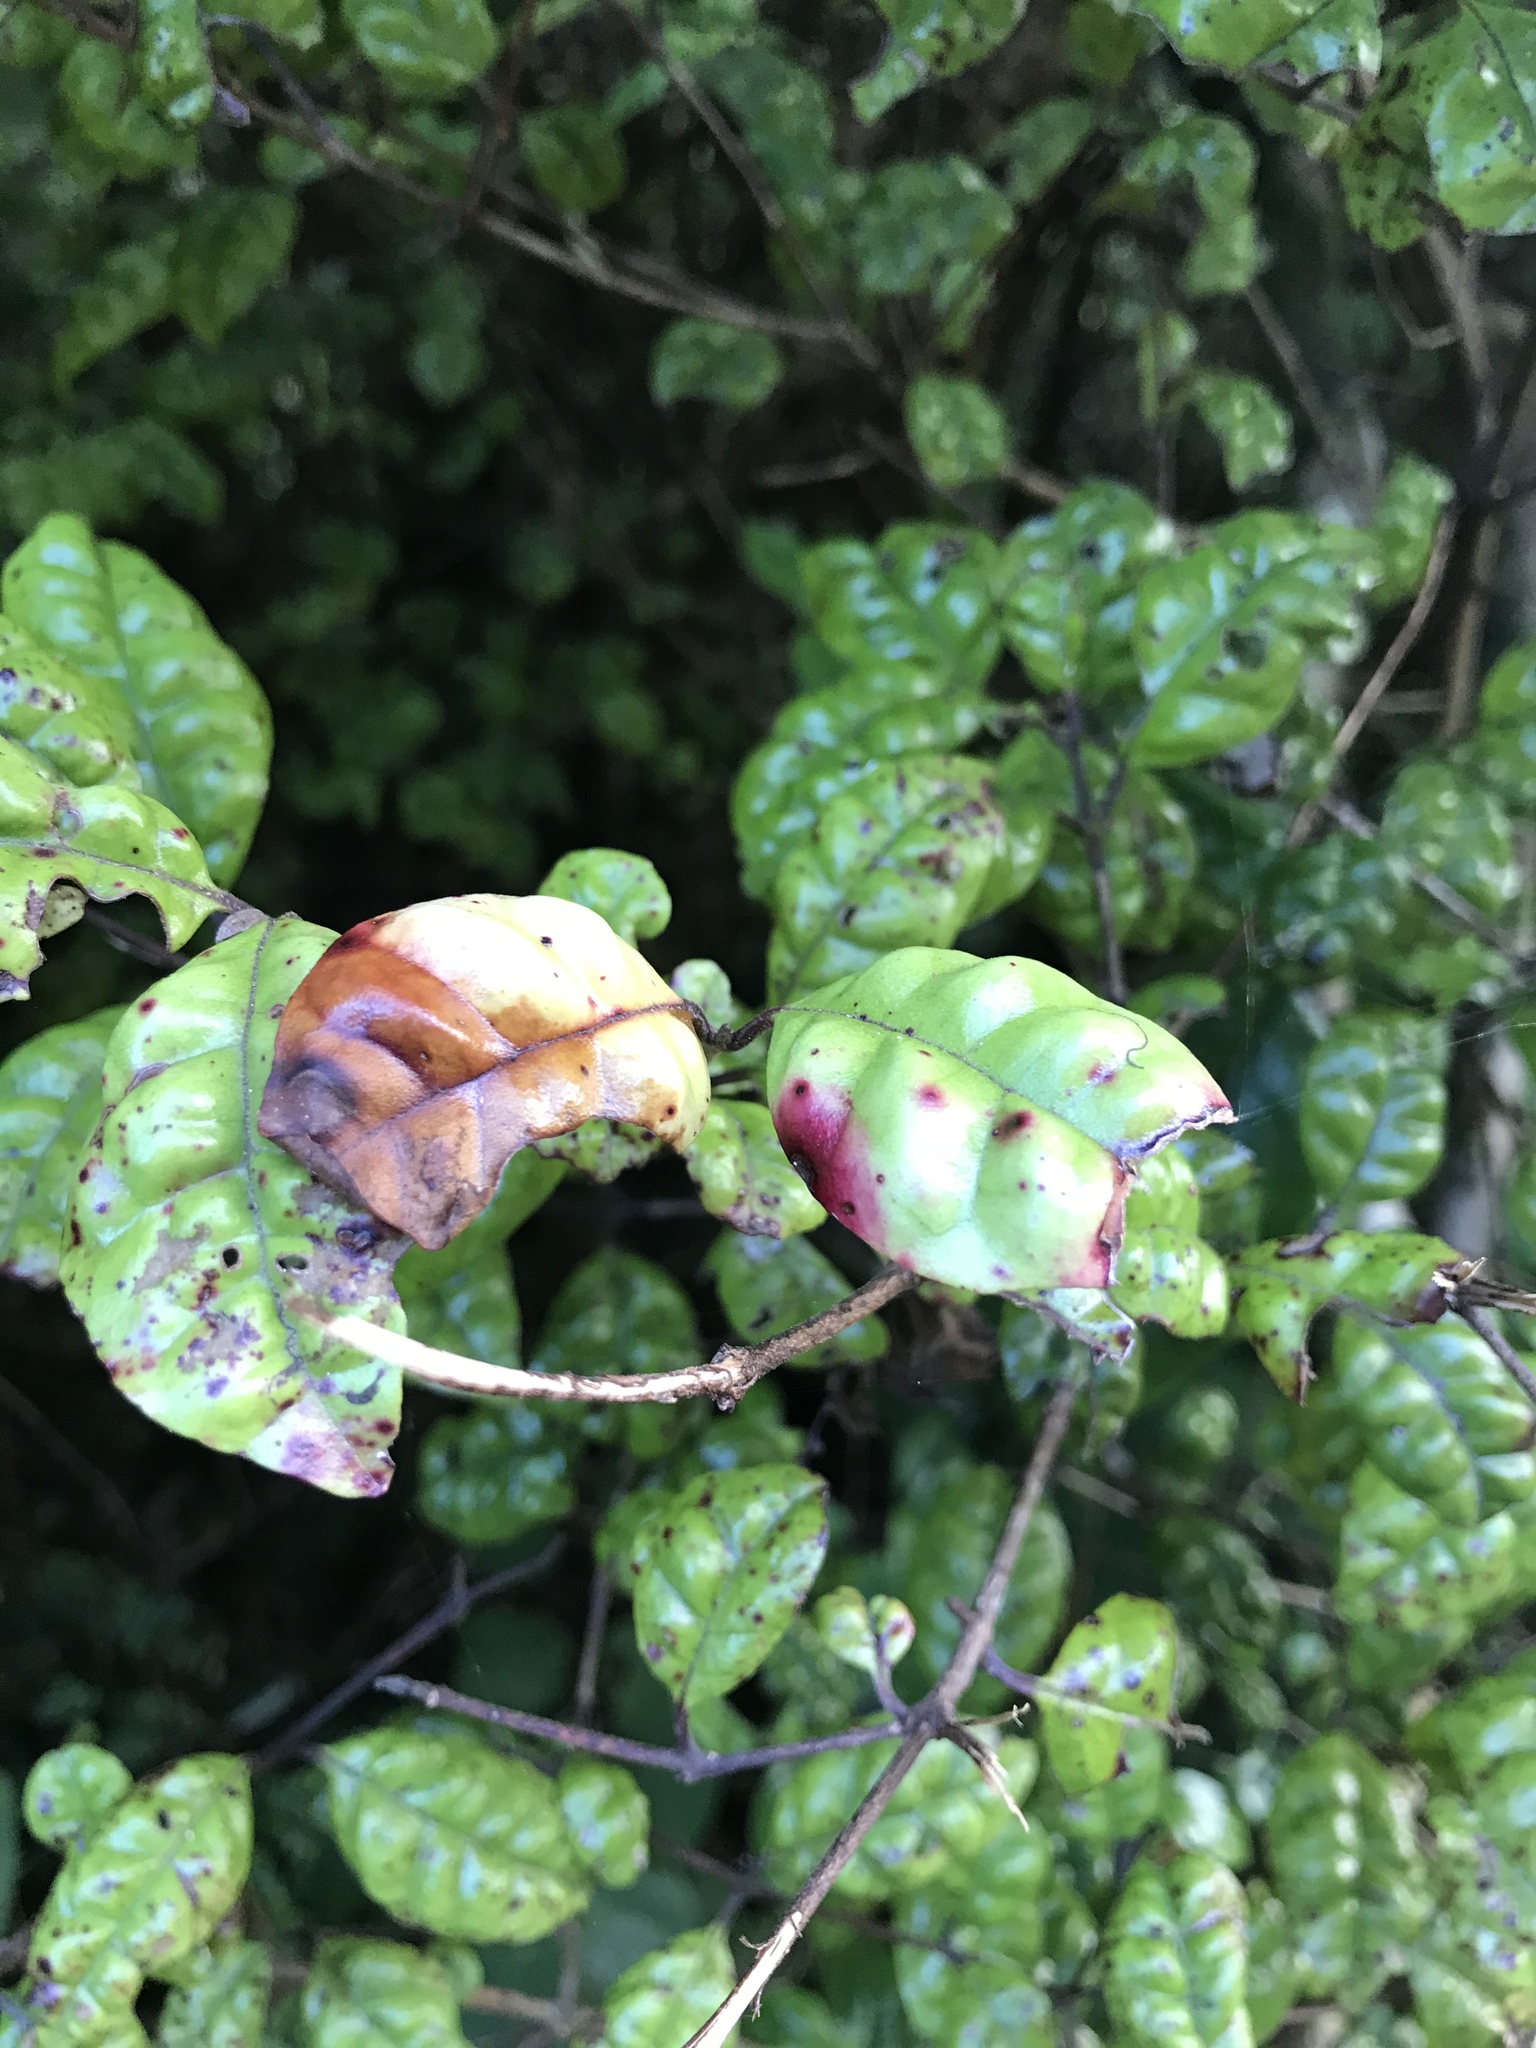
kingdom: Fungi
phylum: Basidiomycota
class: Pucciniomycetes
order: Pucciniales
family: Sphaerophragmiaceae
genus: Austropuccinia
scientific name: Austropuccinia psidii
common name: Myrtle rust
